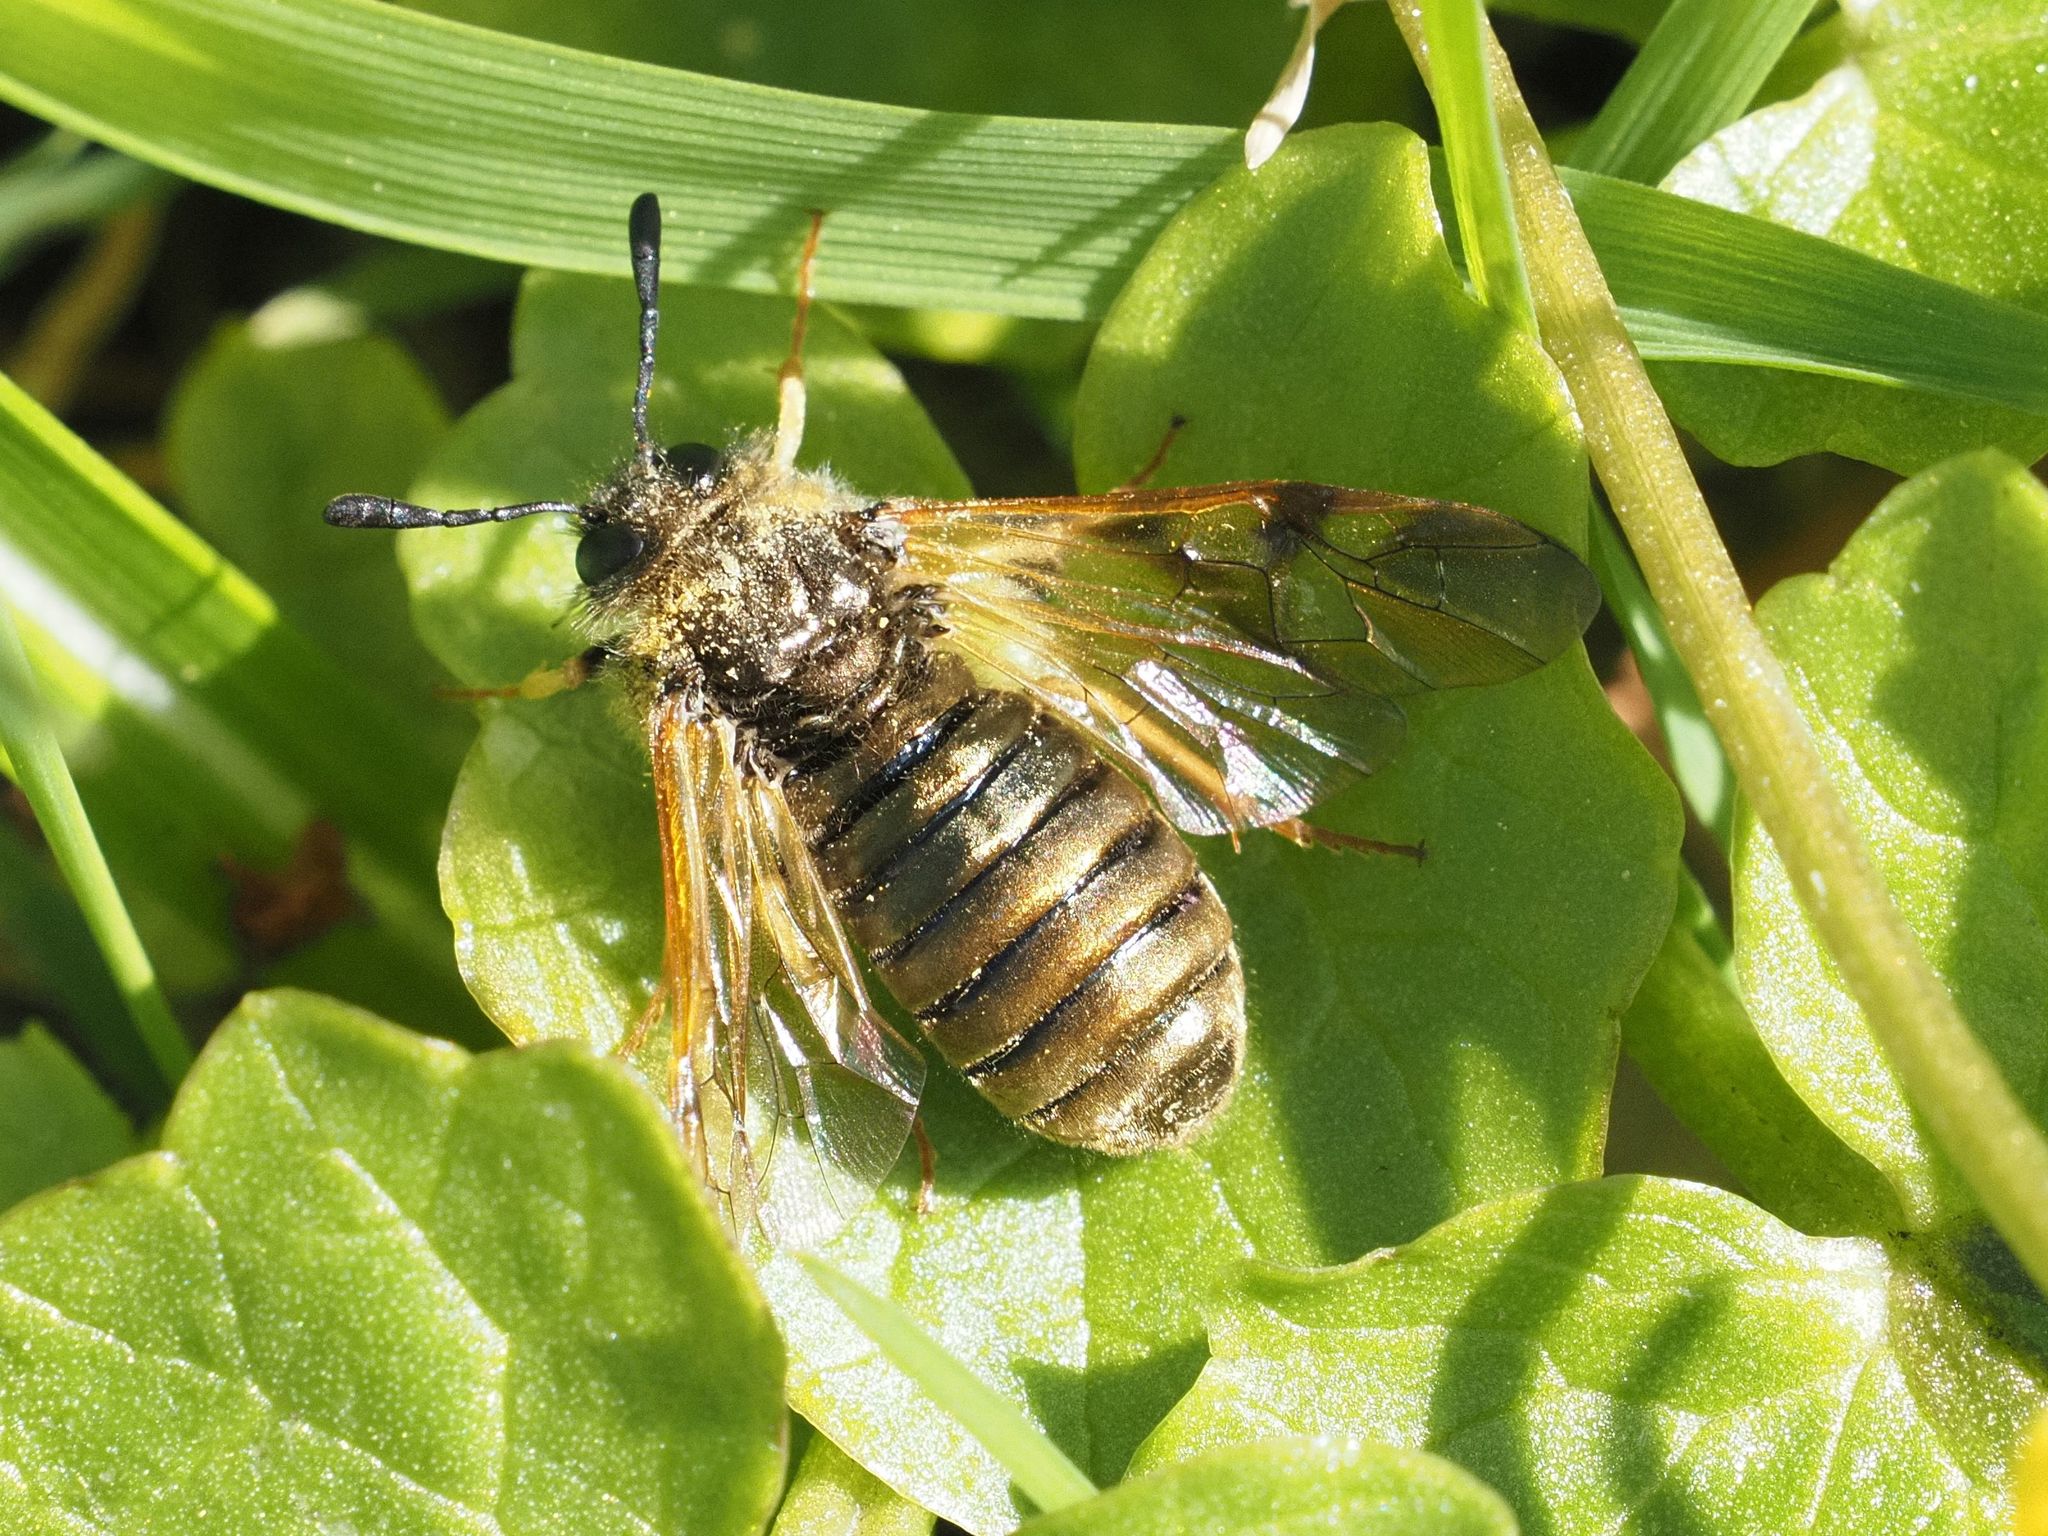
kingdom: Animalia
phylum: Arthropoda
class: Insecta
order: Hymenoptera
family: Cimbicidae
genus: Abia
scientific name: Abia aenea
